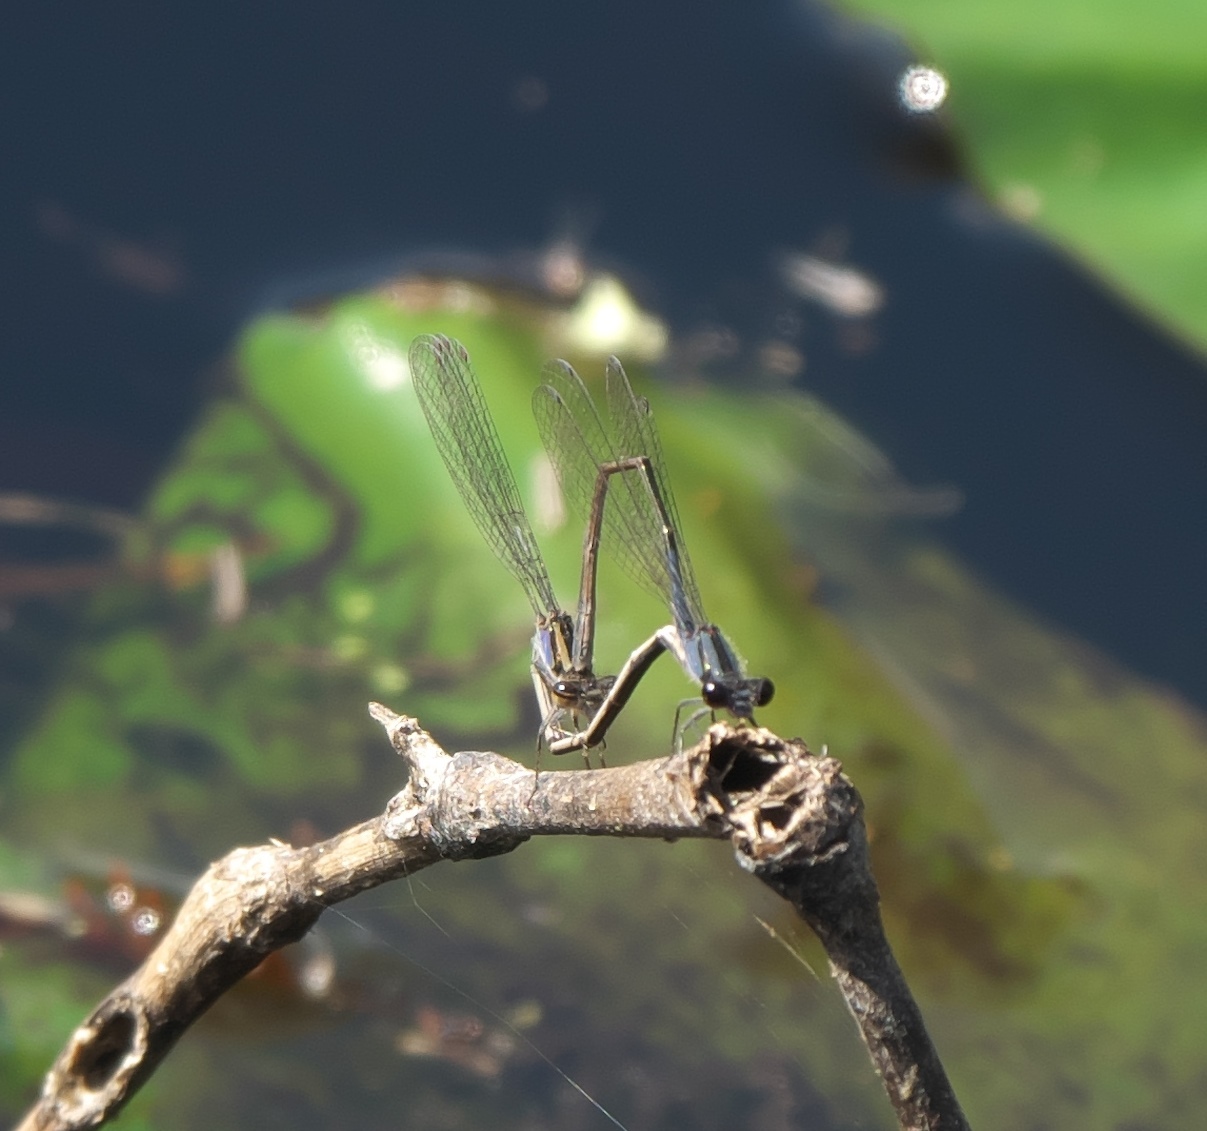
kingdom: Animalia
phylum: Arthropoda
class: Insecta
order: Odonata
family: Coenagrionidae
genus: Enallagma
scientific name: Enallagma cardenium
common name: Purple bluet
